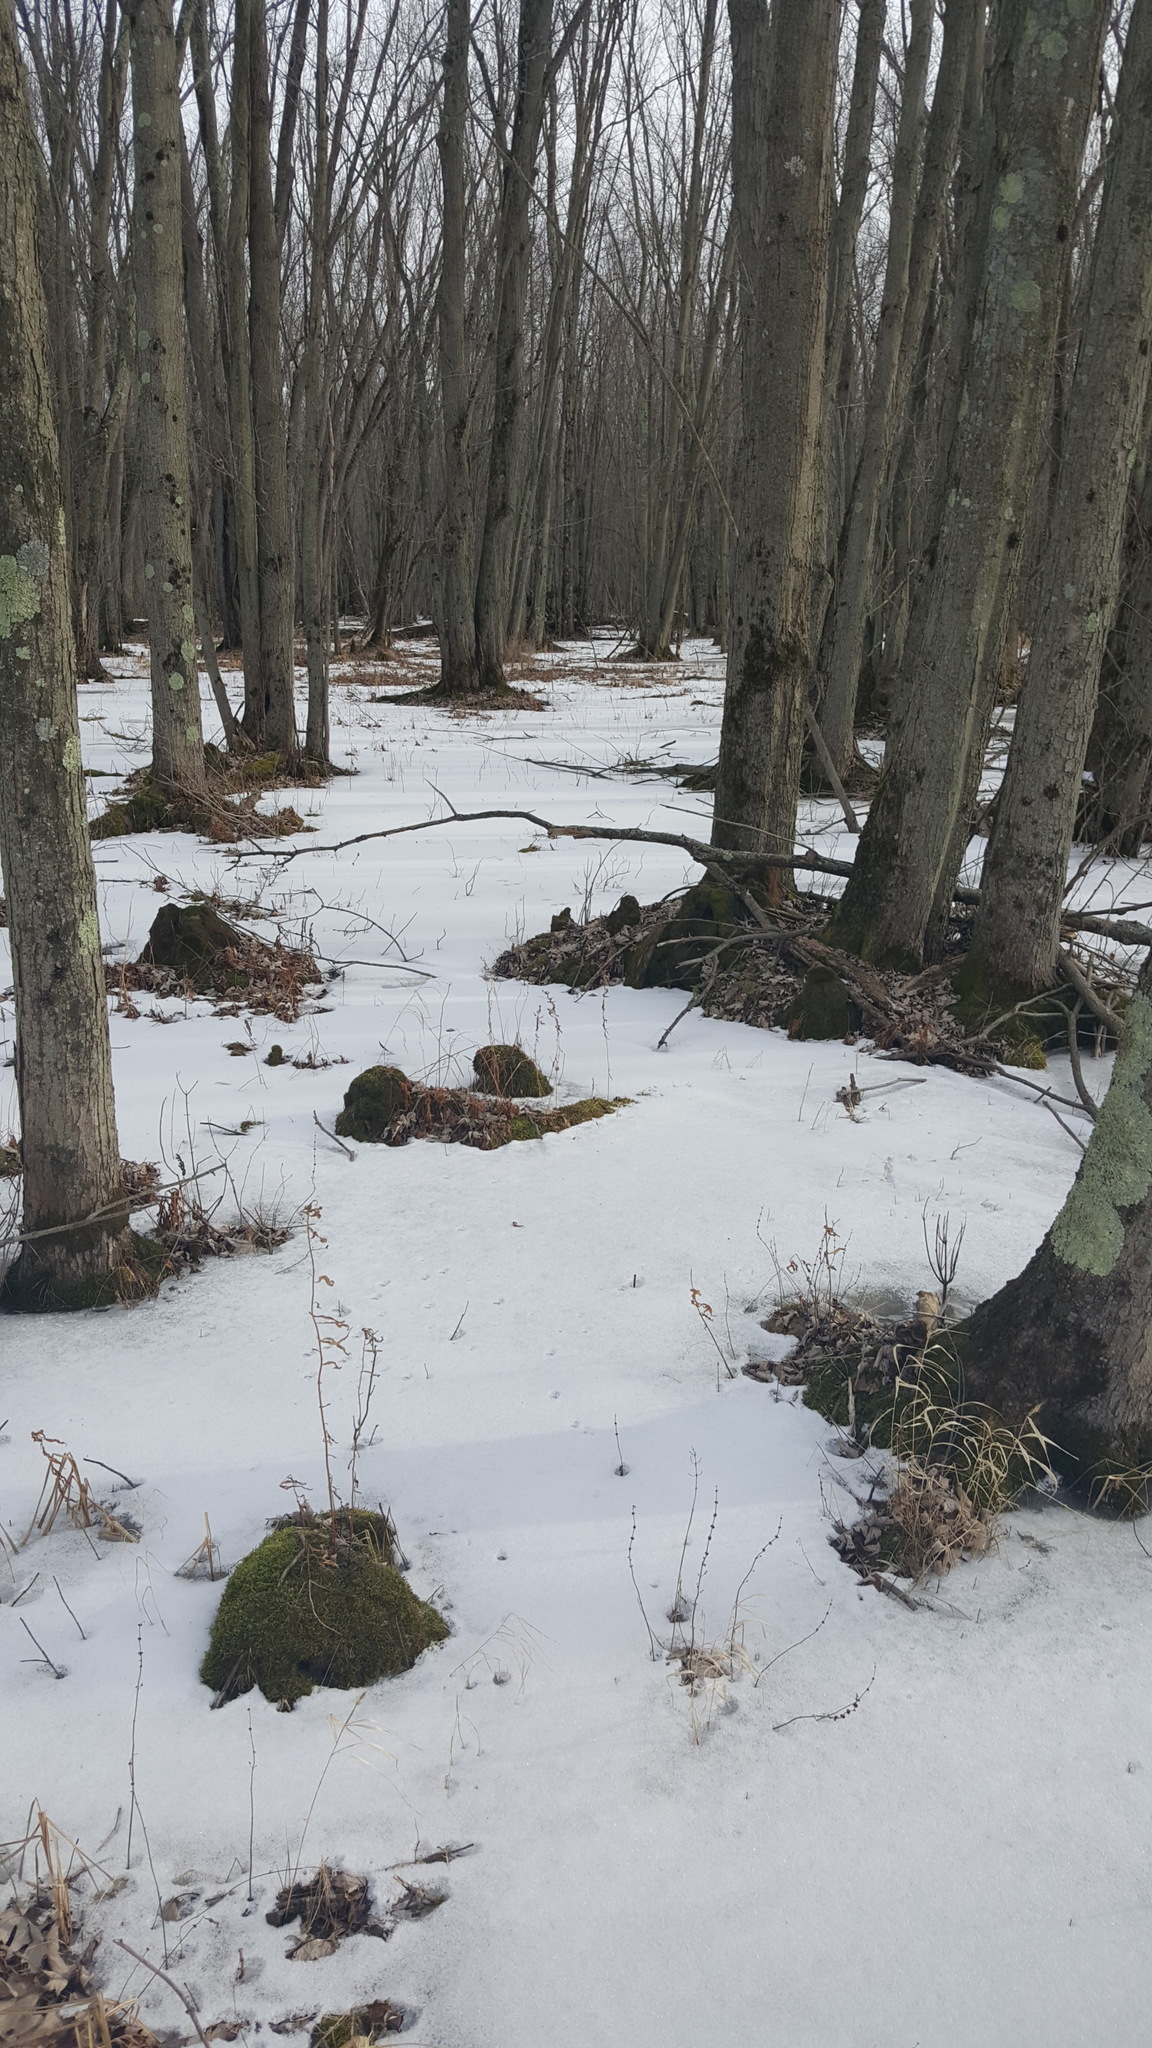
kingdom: Plantae
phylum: Tracheophyta
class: Magnoliopsida
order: Sapindales
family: Sapindaceae
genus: Acer
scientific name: Acer saccharinum
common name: Silver maple
